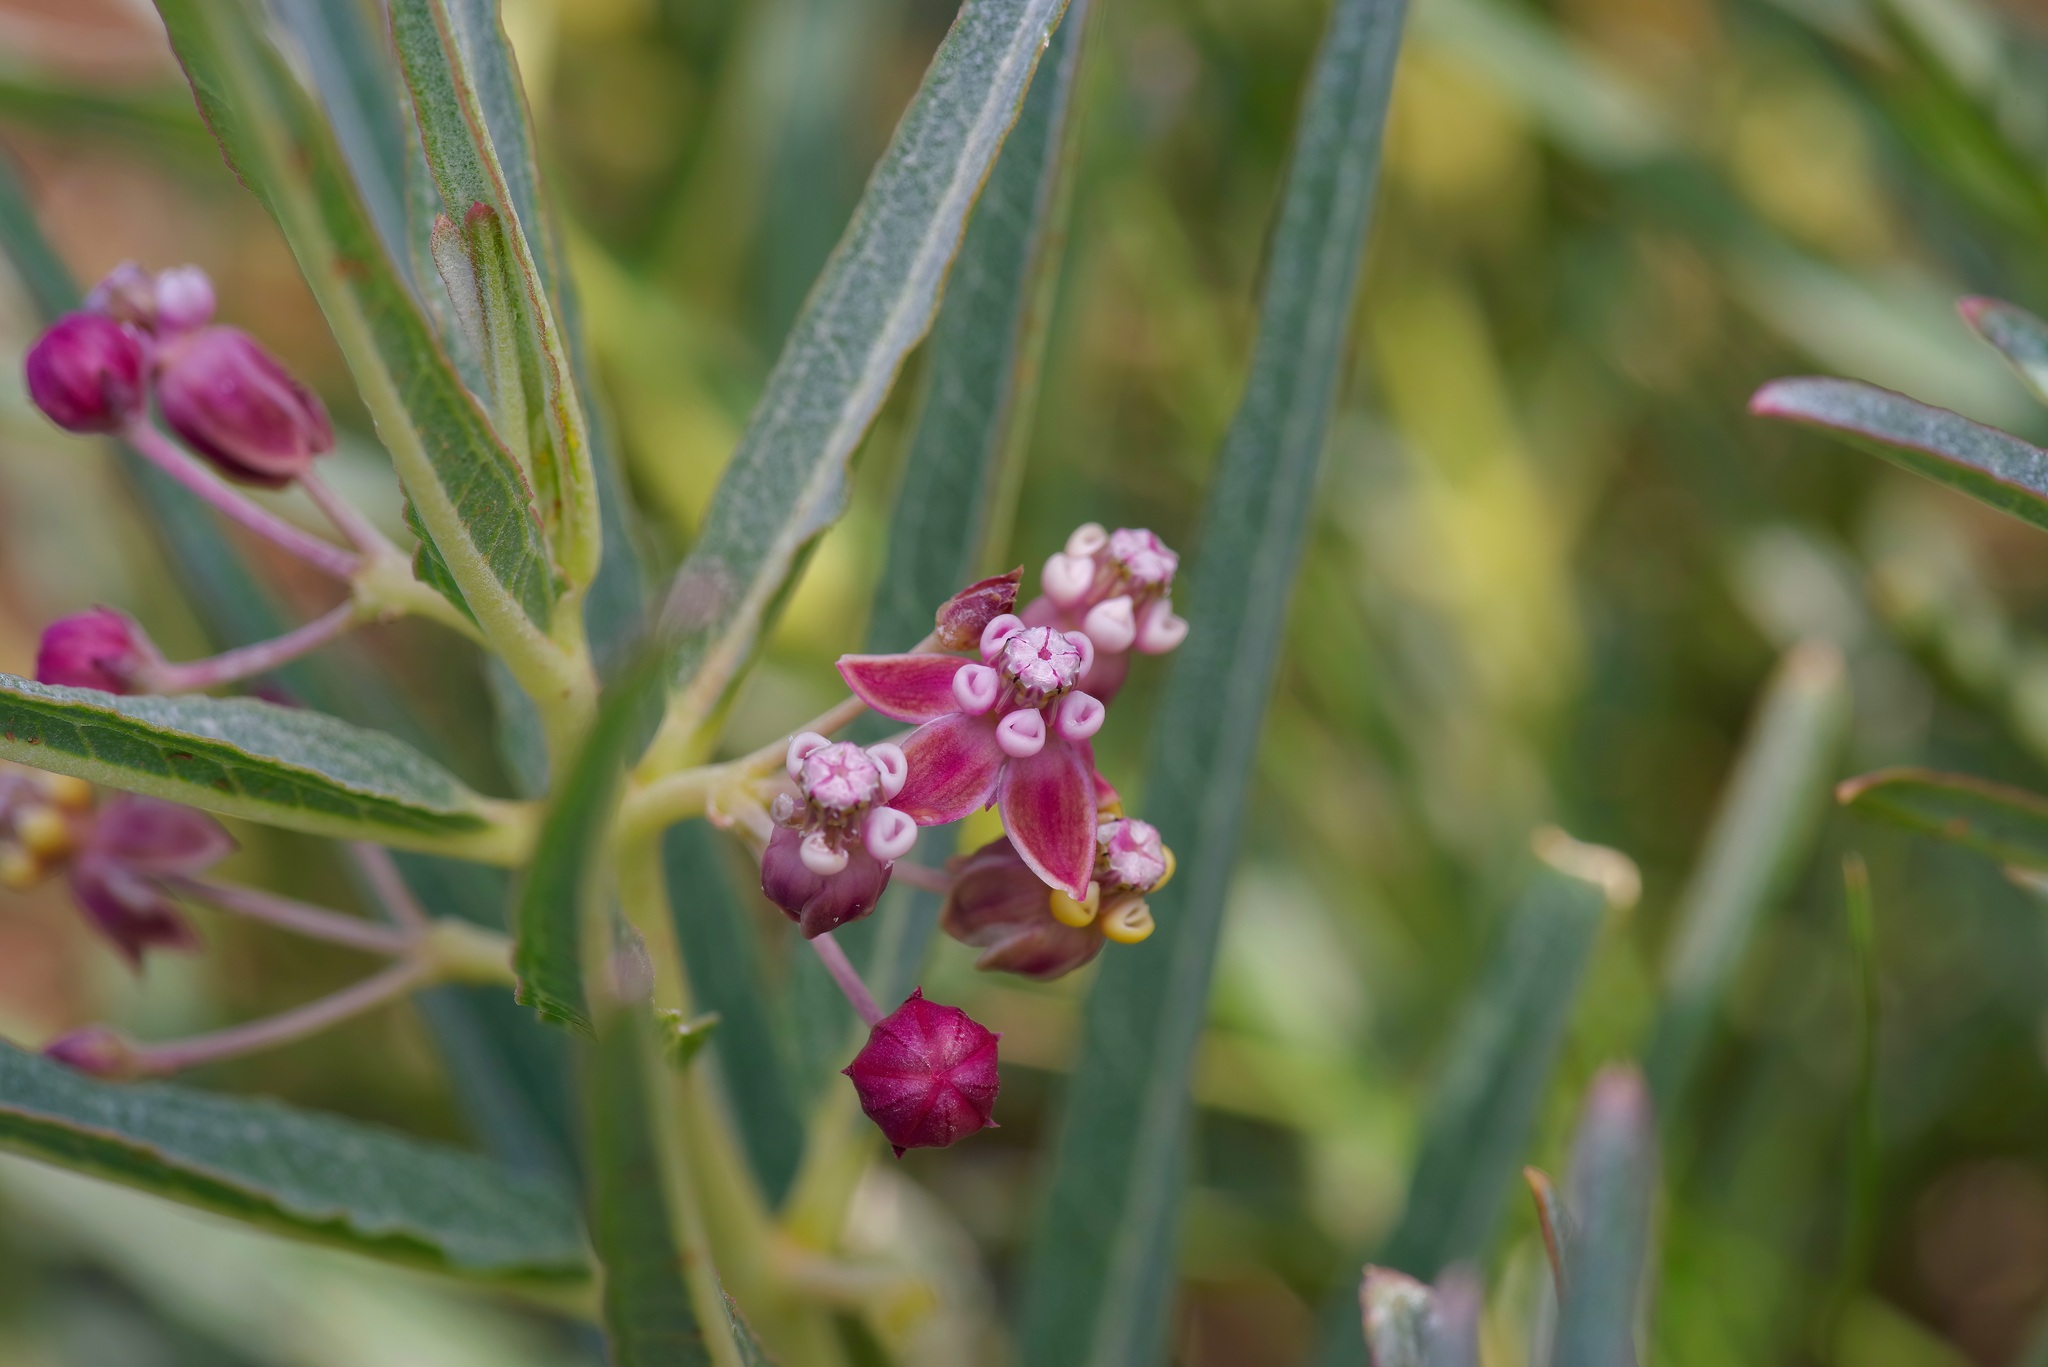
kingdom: Plantae
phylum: Tracheophyta
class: Magnoliopsida
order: Gentianales
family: Apocynaceae
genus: Asclepias
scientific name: Asclepias brachystephana
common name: Shortcrown milkweed
